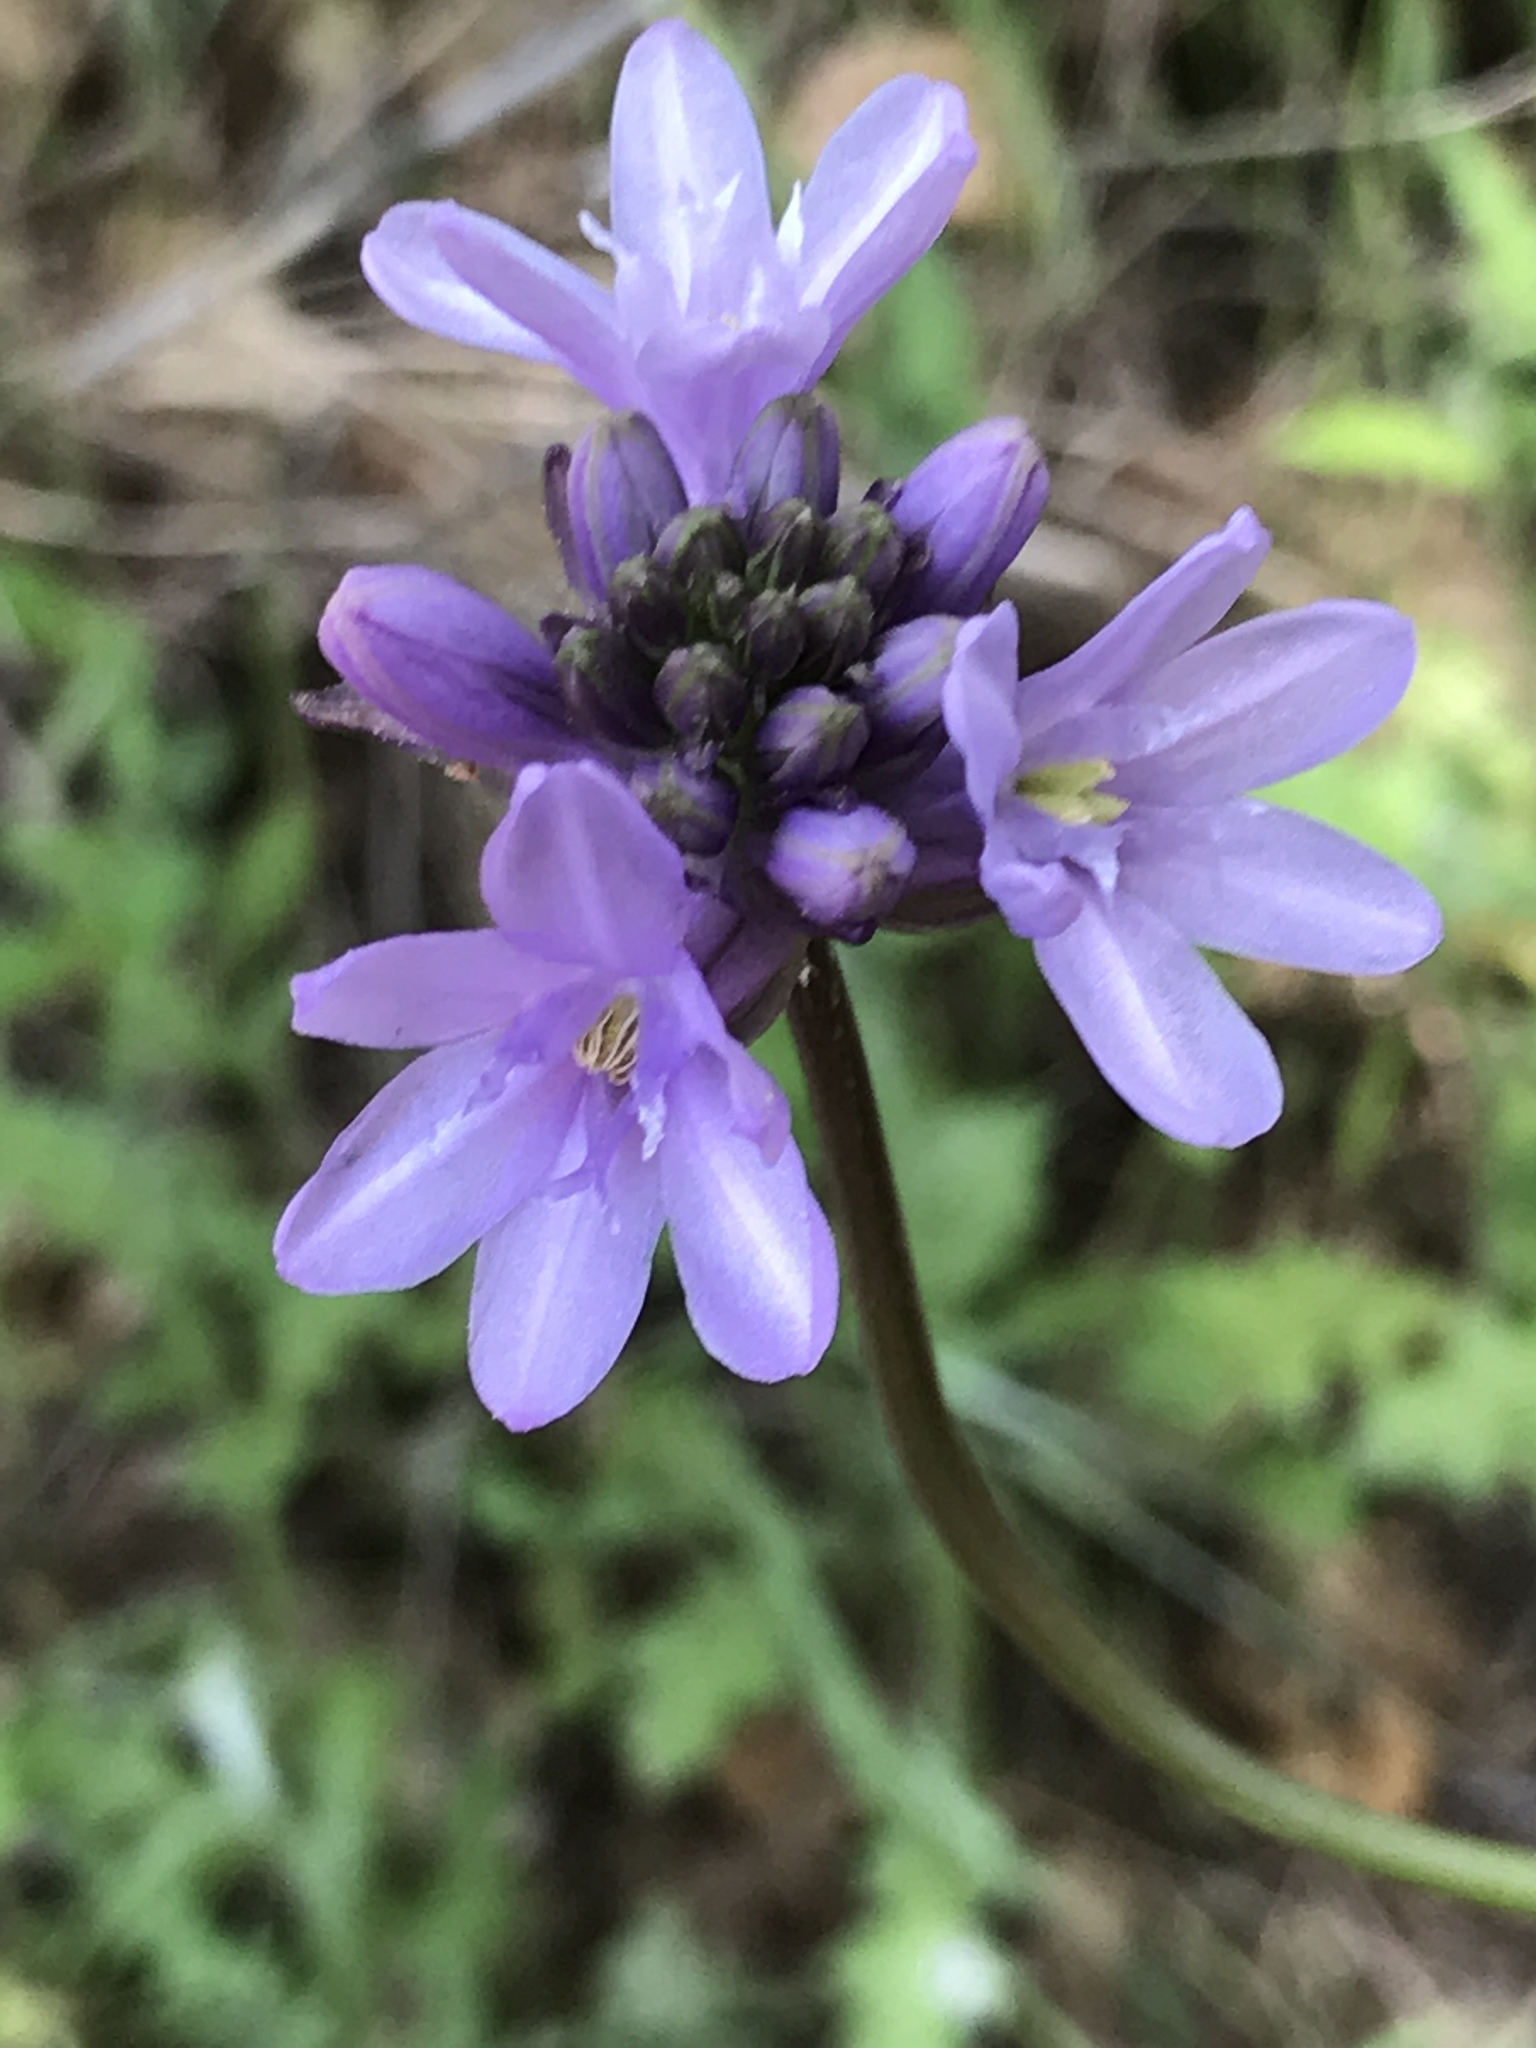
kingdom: Plantae
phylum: Tracheophyta
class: Liliopsida
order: Asparagales
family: Asparagaceae
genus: Dichelostemma
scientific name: Dichelostemma congestum
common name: Fork-tooth ookow
